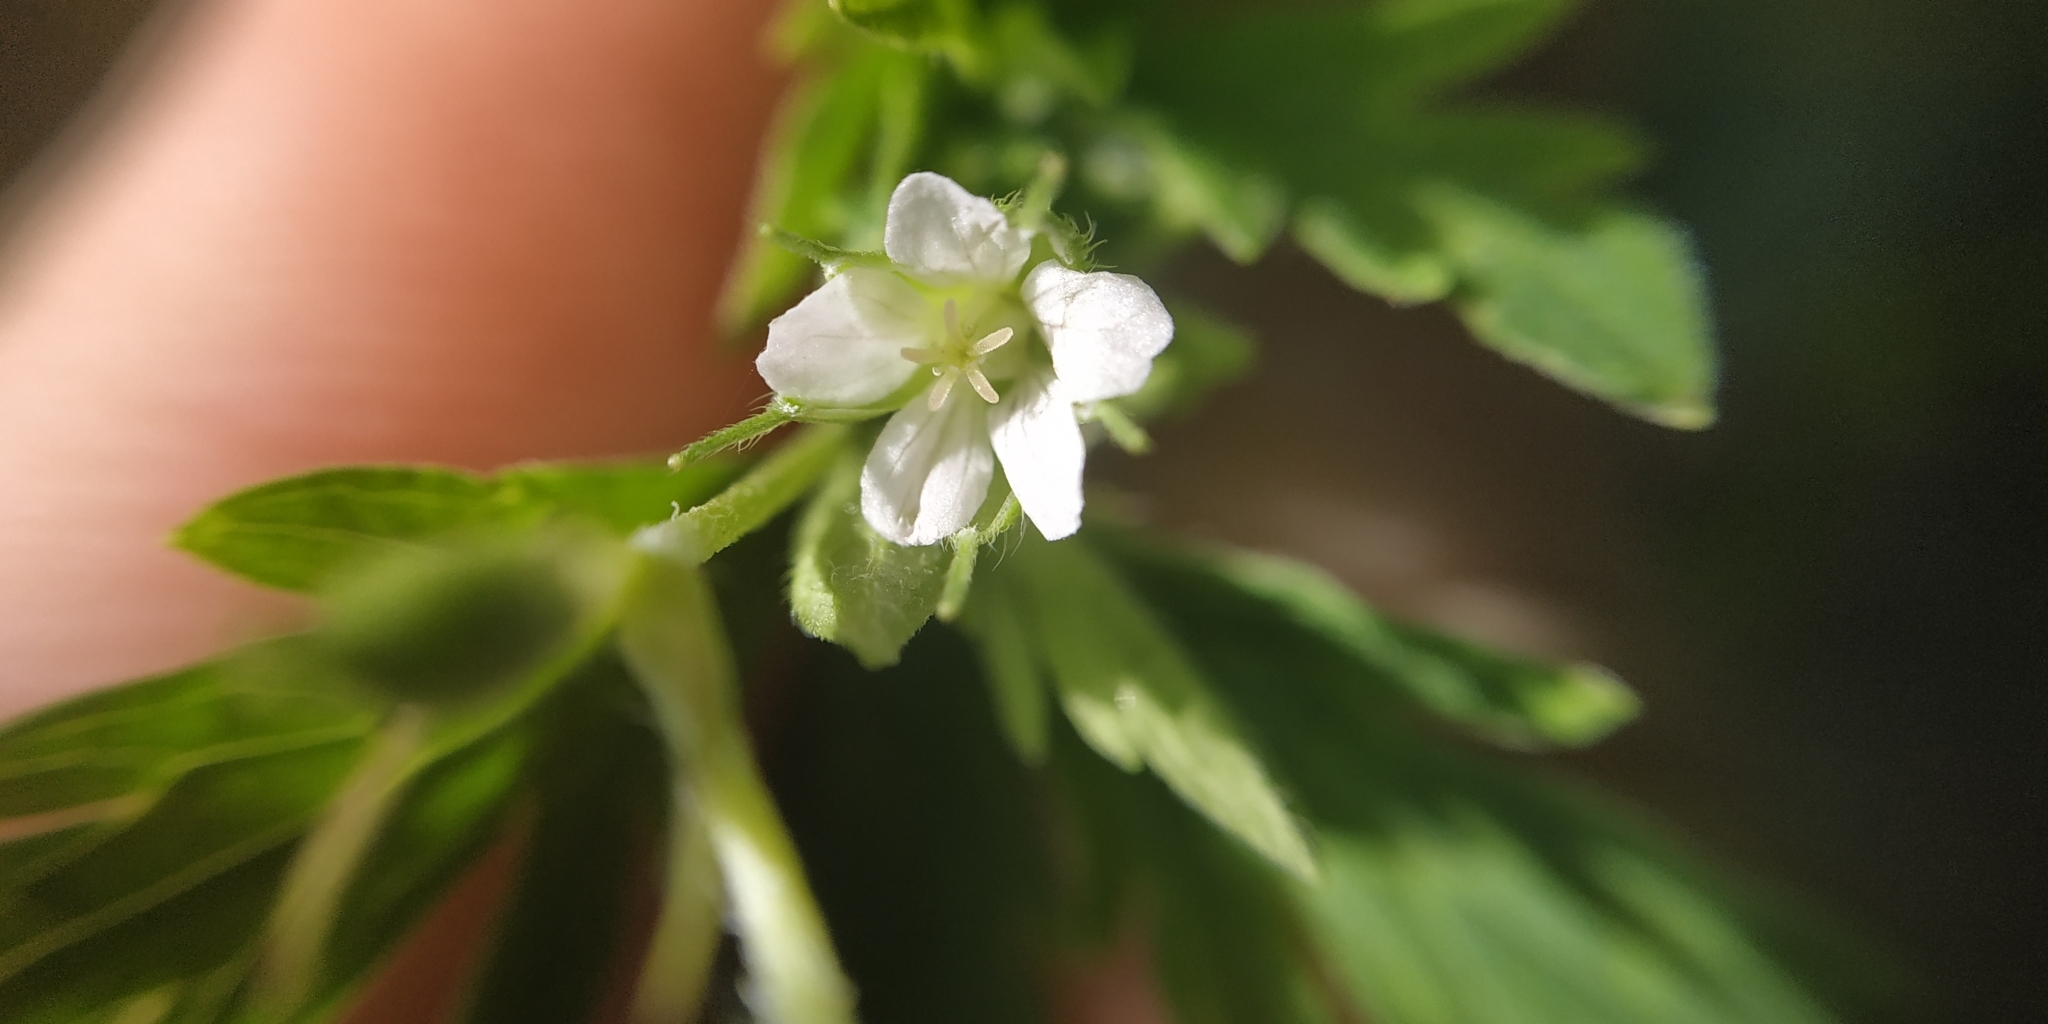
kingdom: Plantae
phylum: Tracheophyta
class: Magnoliopsida
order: Geraniales
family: Geraniaceae
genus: Geranium
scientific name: Geranium sibiricum
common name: Siberian crane's-bill
